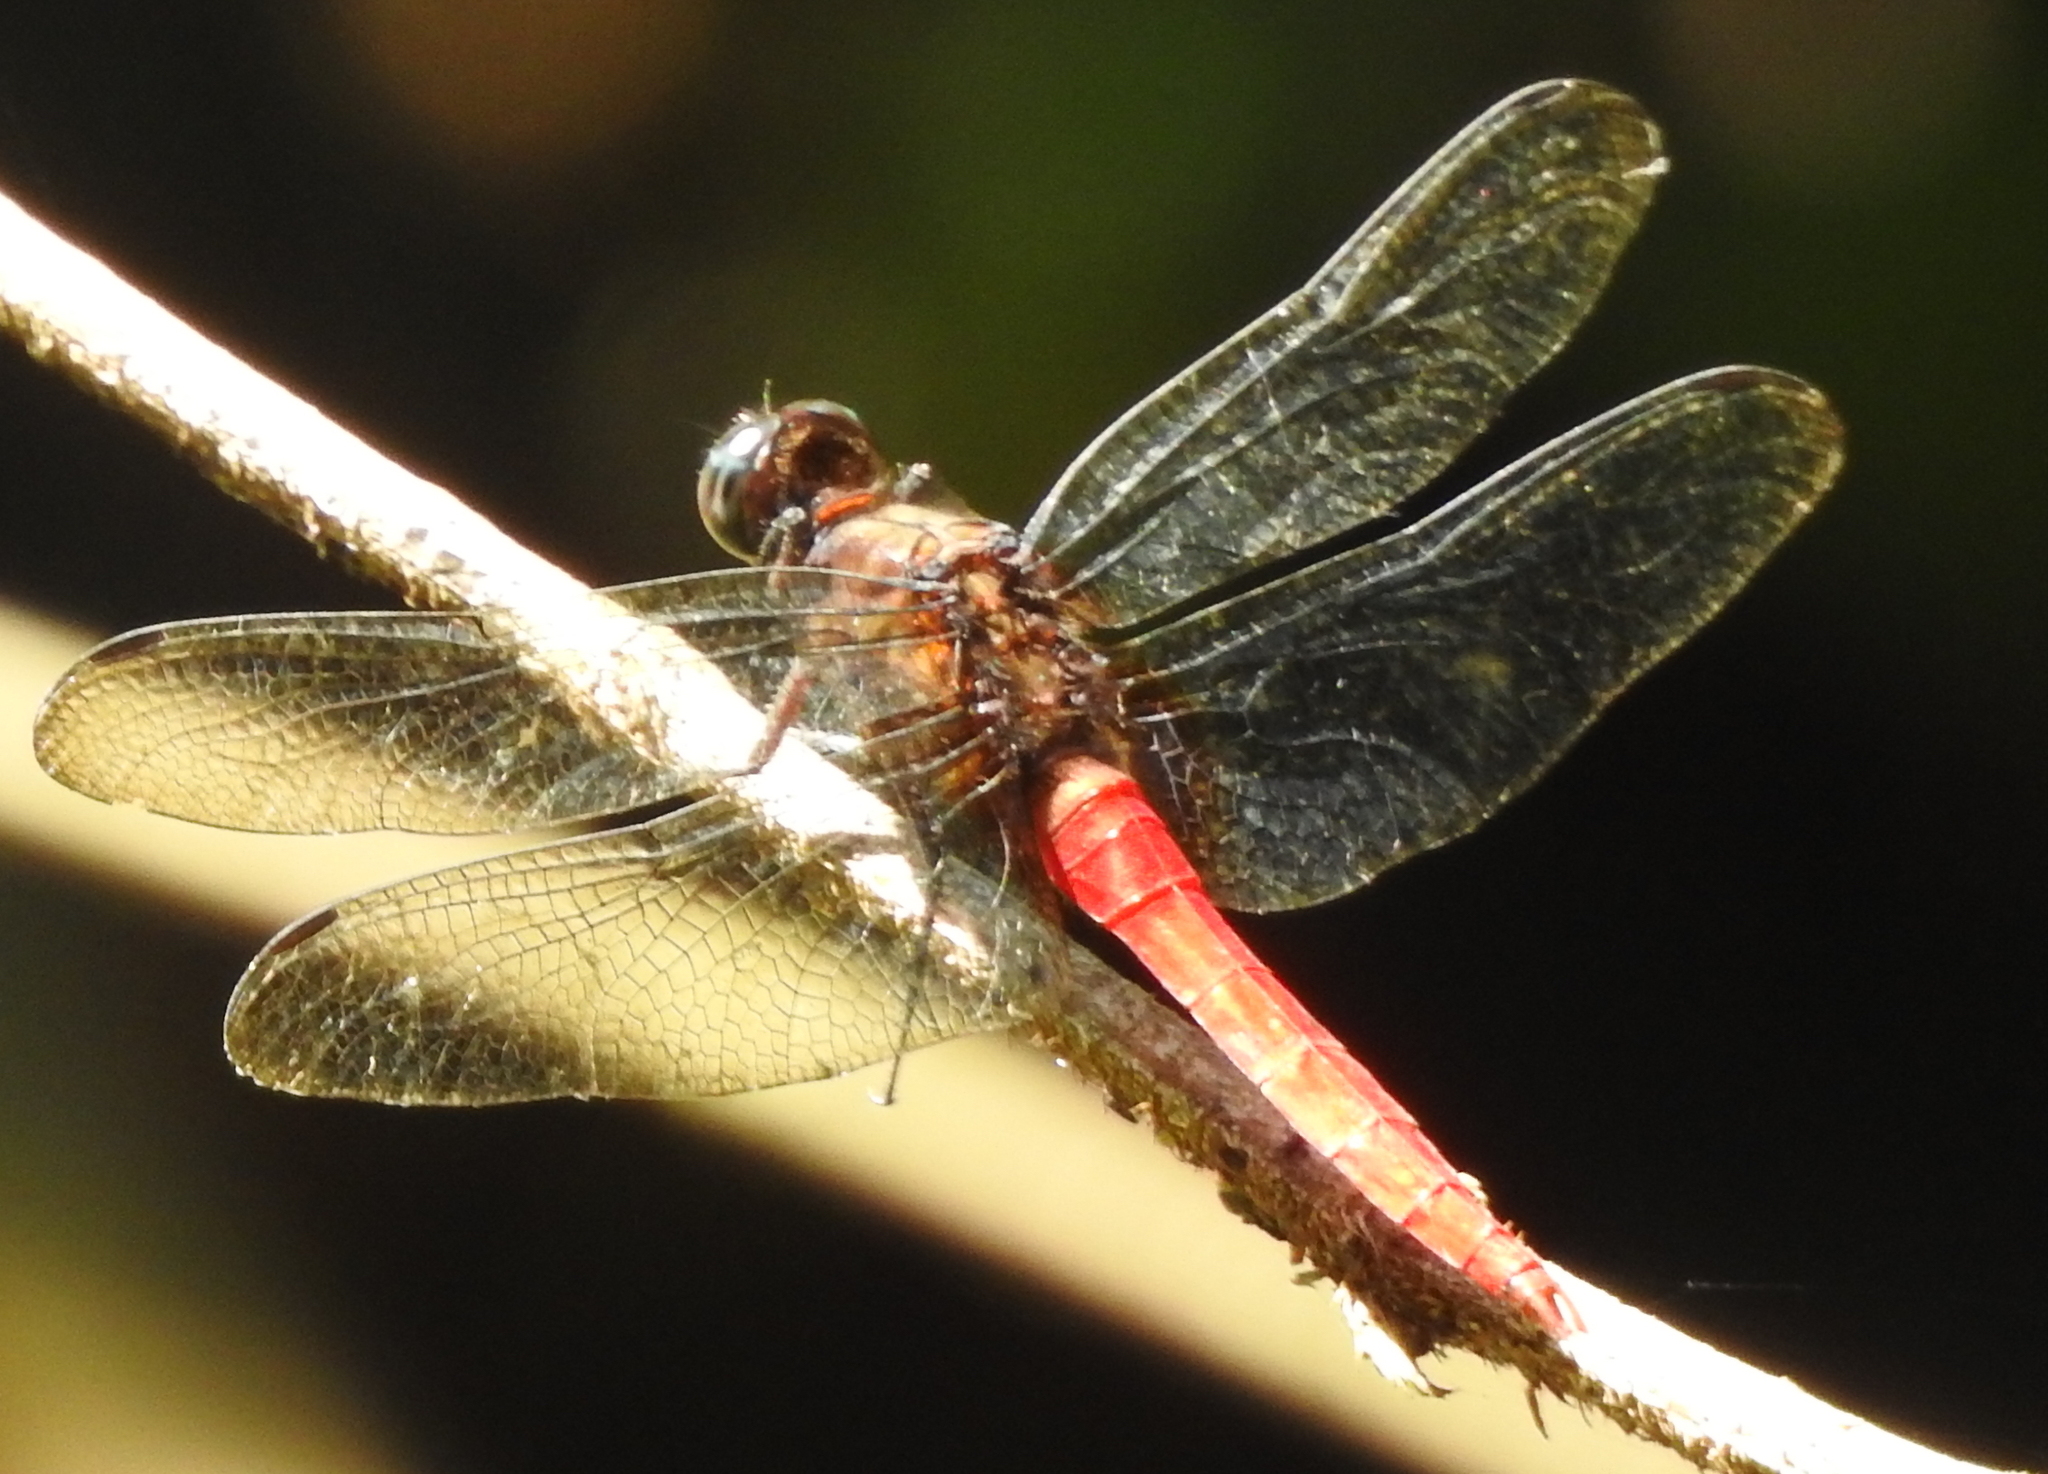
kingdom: Animalia
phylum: Arthropoda
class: Insecta
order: Odonata
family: Libellulidae
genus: Orthetrum
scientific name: Orthetrum testaceum
